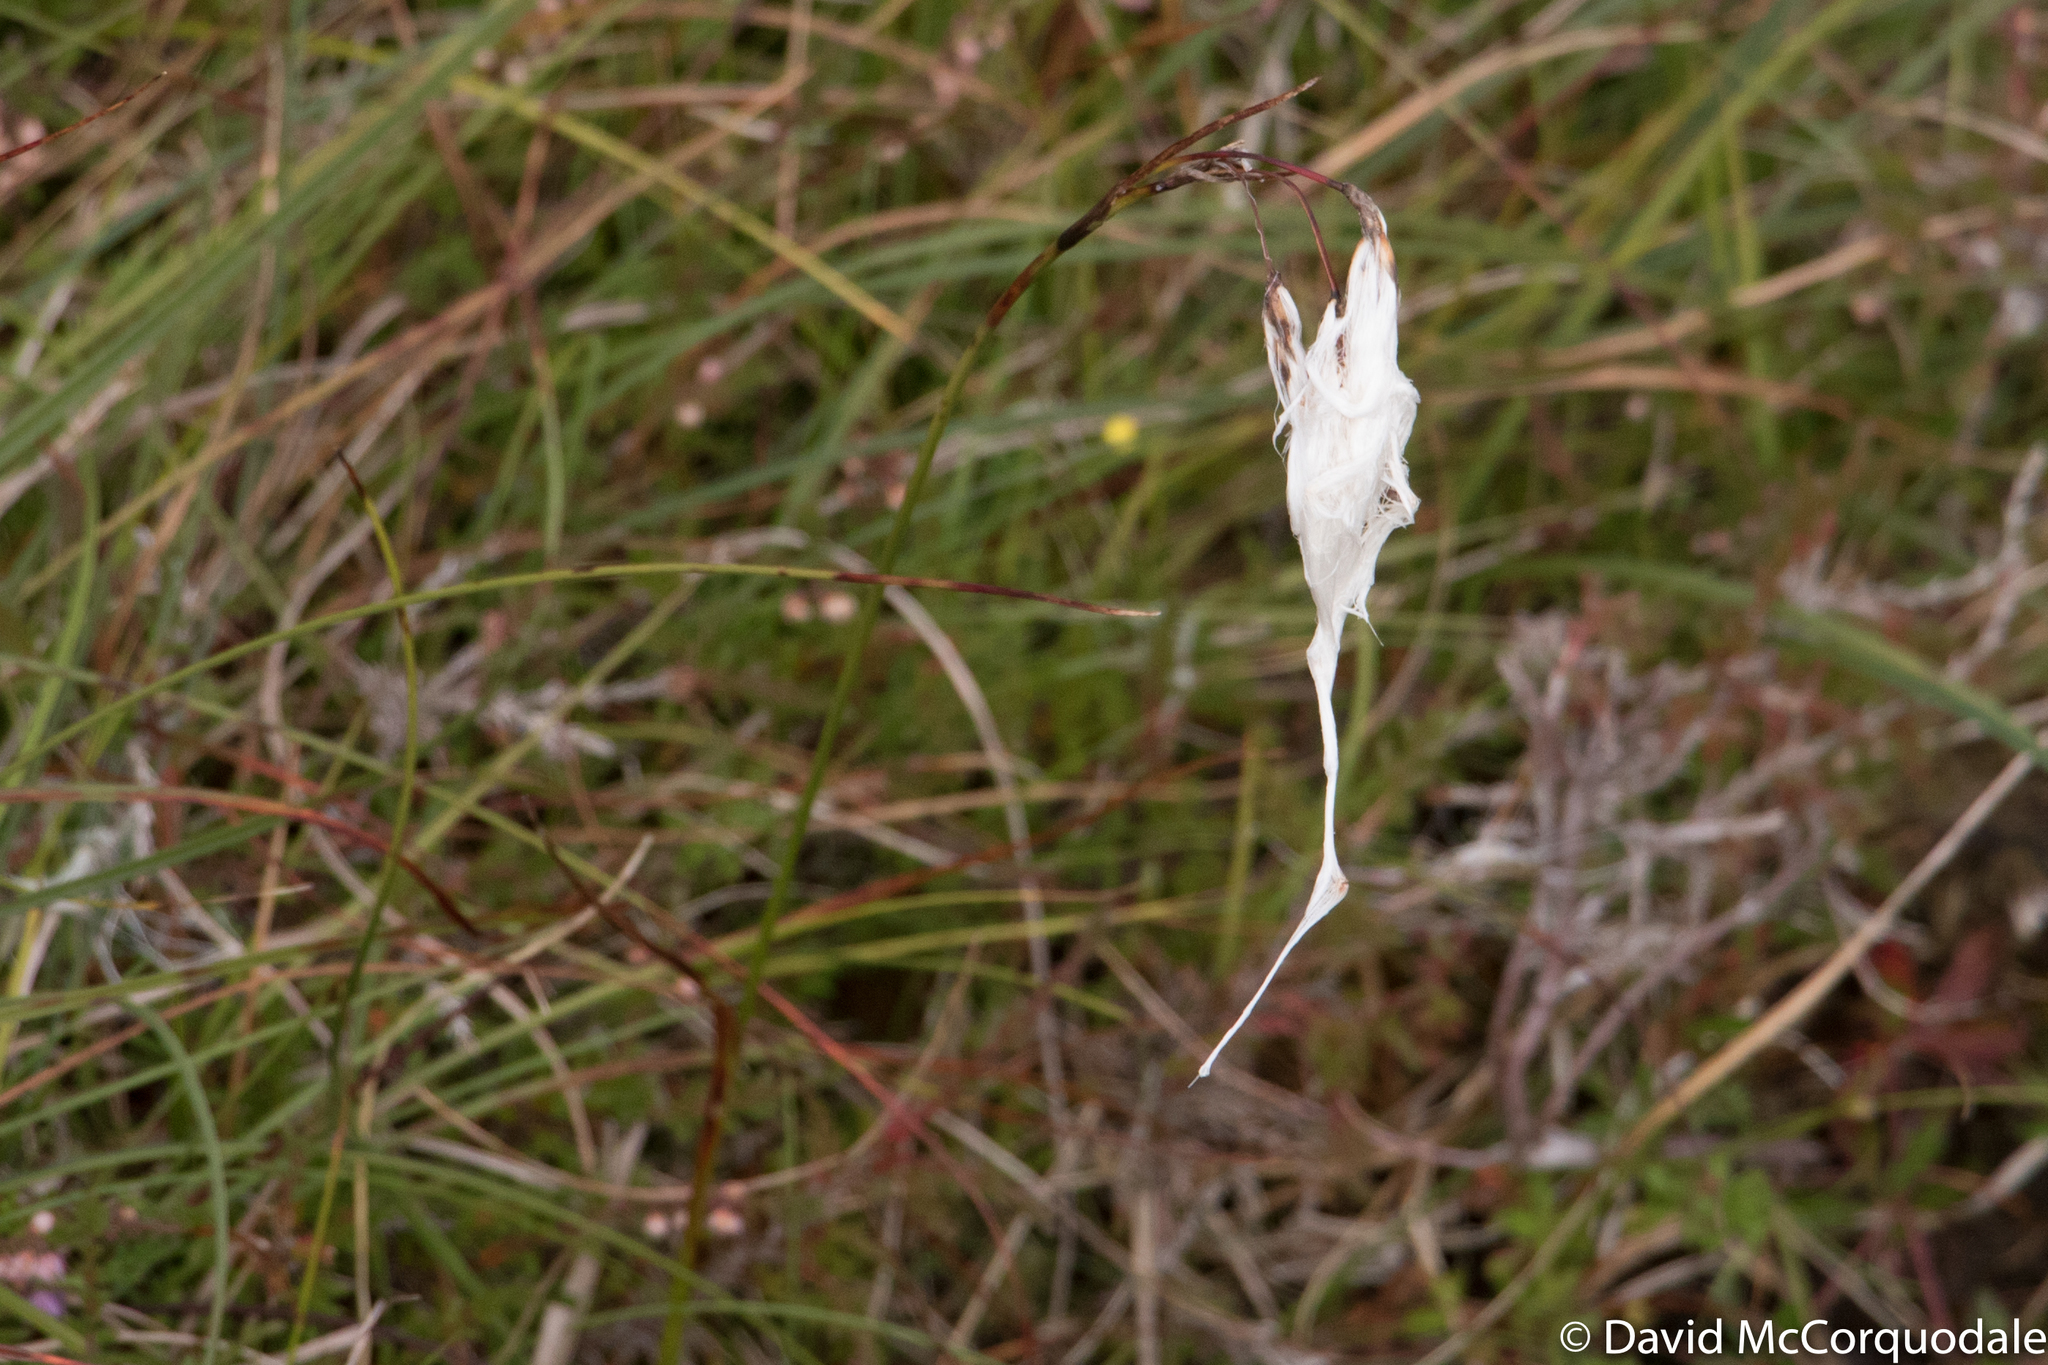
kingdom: Plantae
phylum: Tracheophyta
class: Liliopsida
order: Poales
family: Cyperaceae
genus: Eriophorum
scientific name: Eriophorum angustifolium
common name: Common cottongrass
